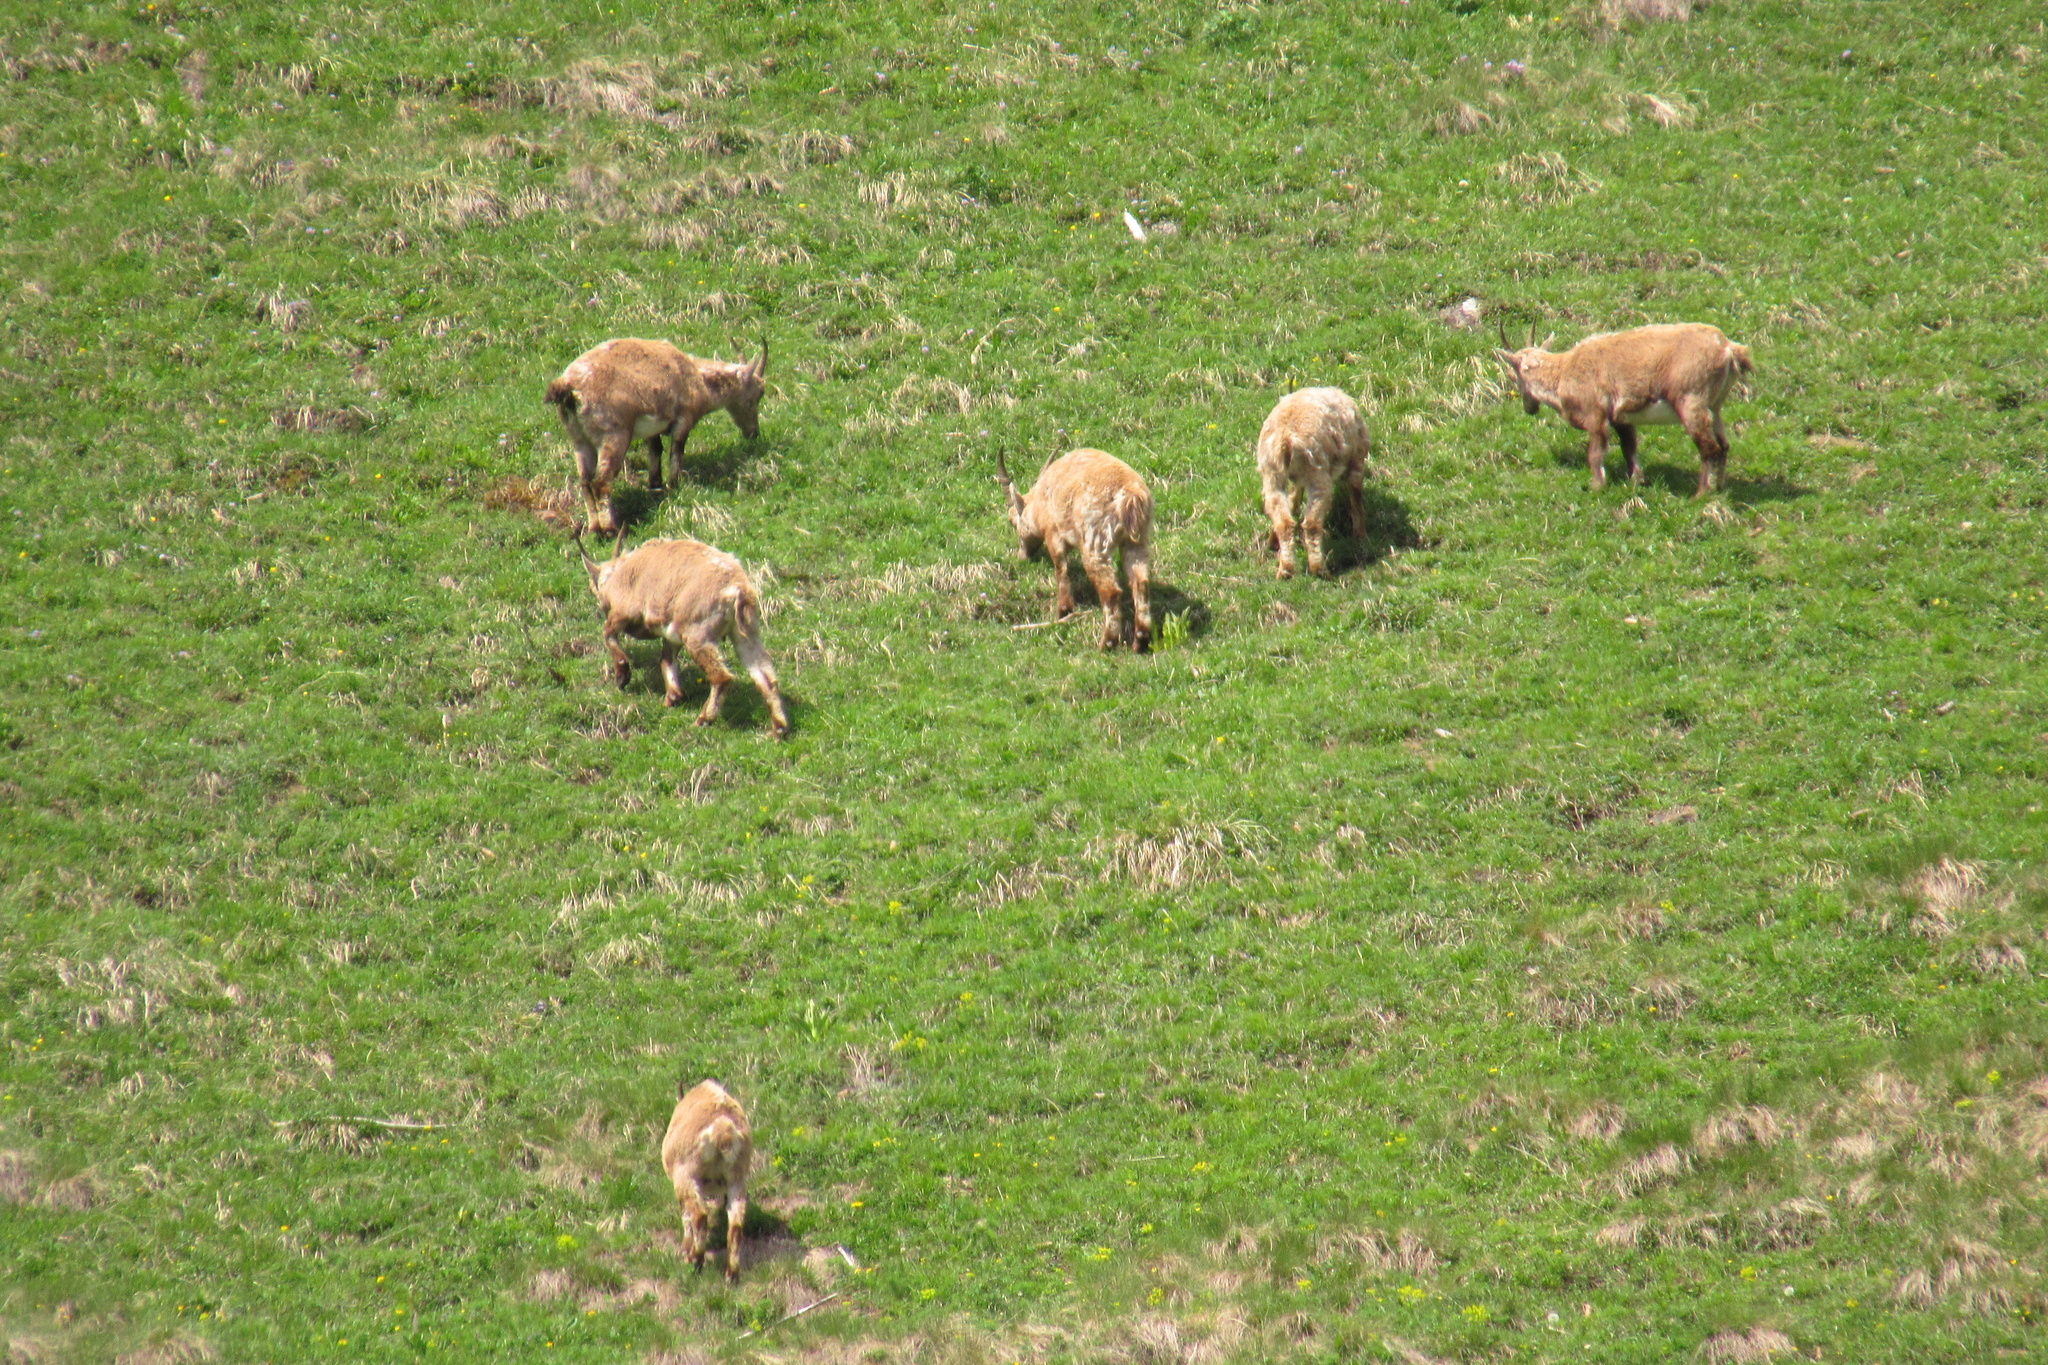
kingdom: Animalia
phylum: Chordata
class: Mammalia
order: Artiodactyla
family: Bovidae
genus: Capra
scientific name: Capra ibex
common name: Alpine ibex
